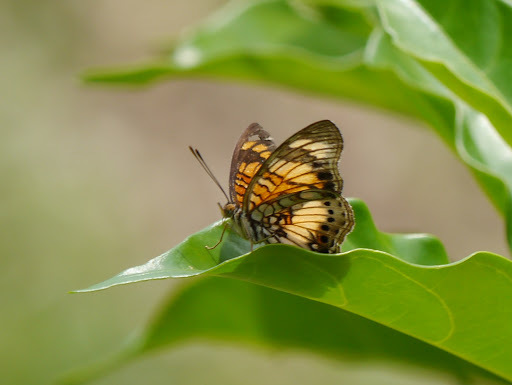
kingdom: Animalia
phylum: Arthropoda
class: Insecta
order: Lepidoptera
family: Nymphalidae
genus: Junonia
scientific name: Junonia sophia
